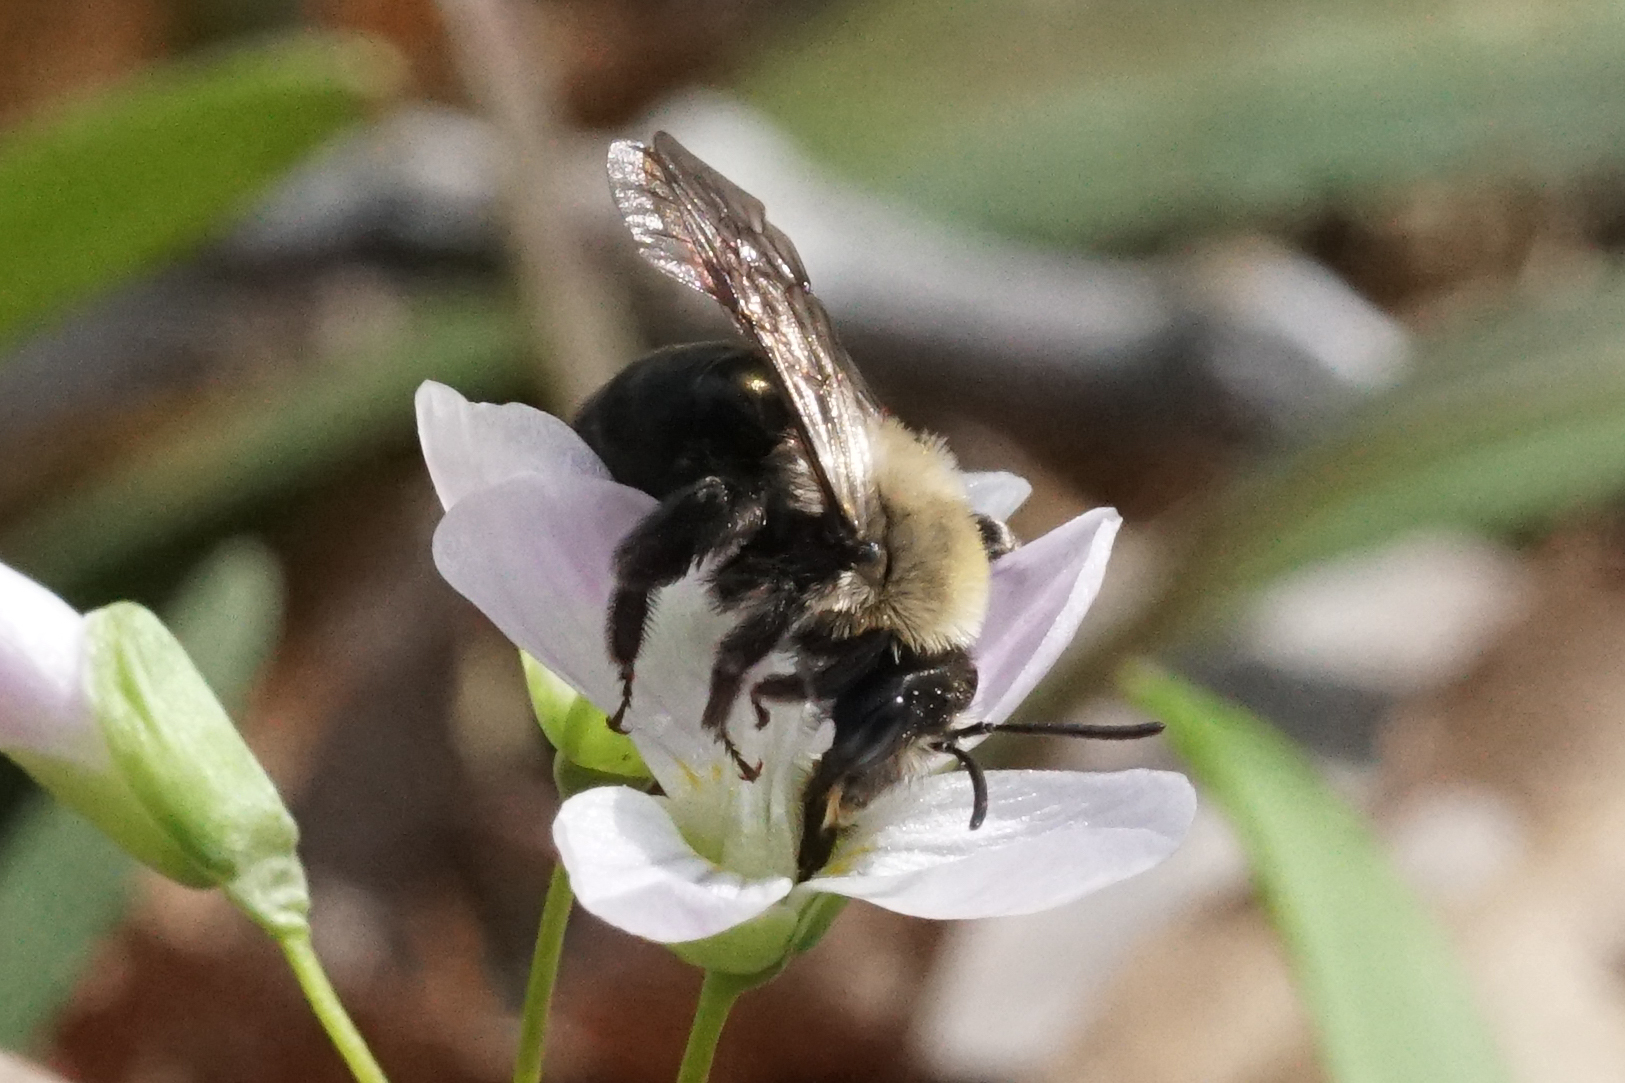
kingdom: Animalia
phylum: Arthropoda
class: Insecta
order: Hymenoptera
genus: Melandrena
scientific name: Melandrena
